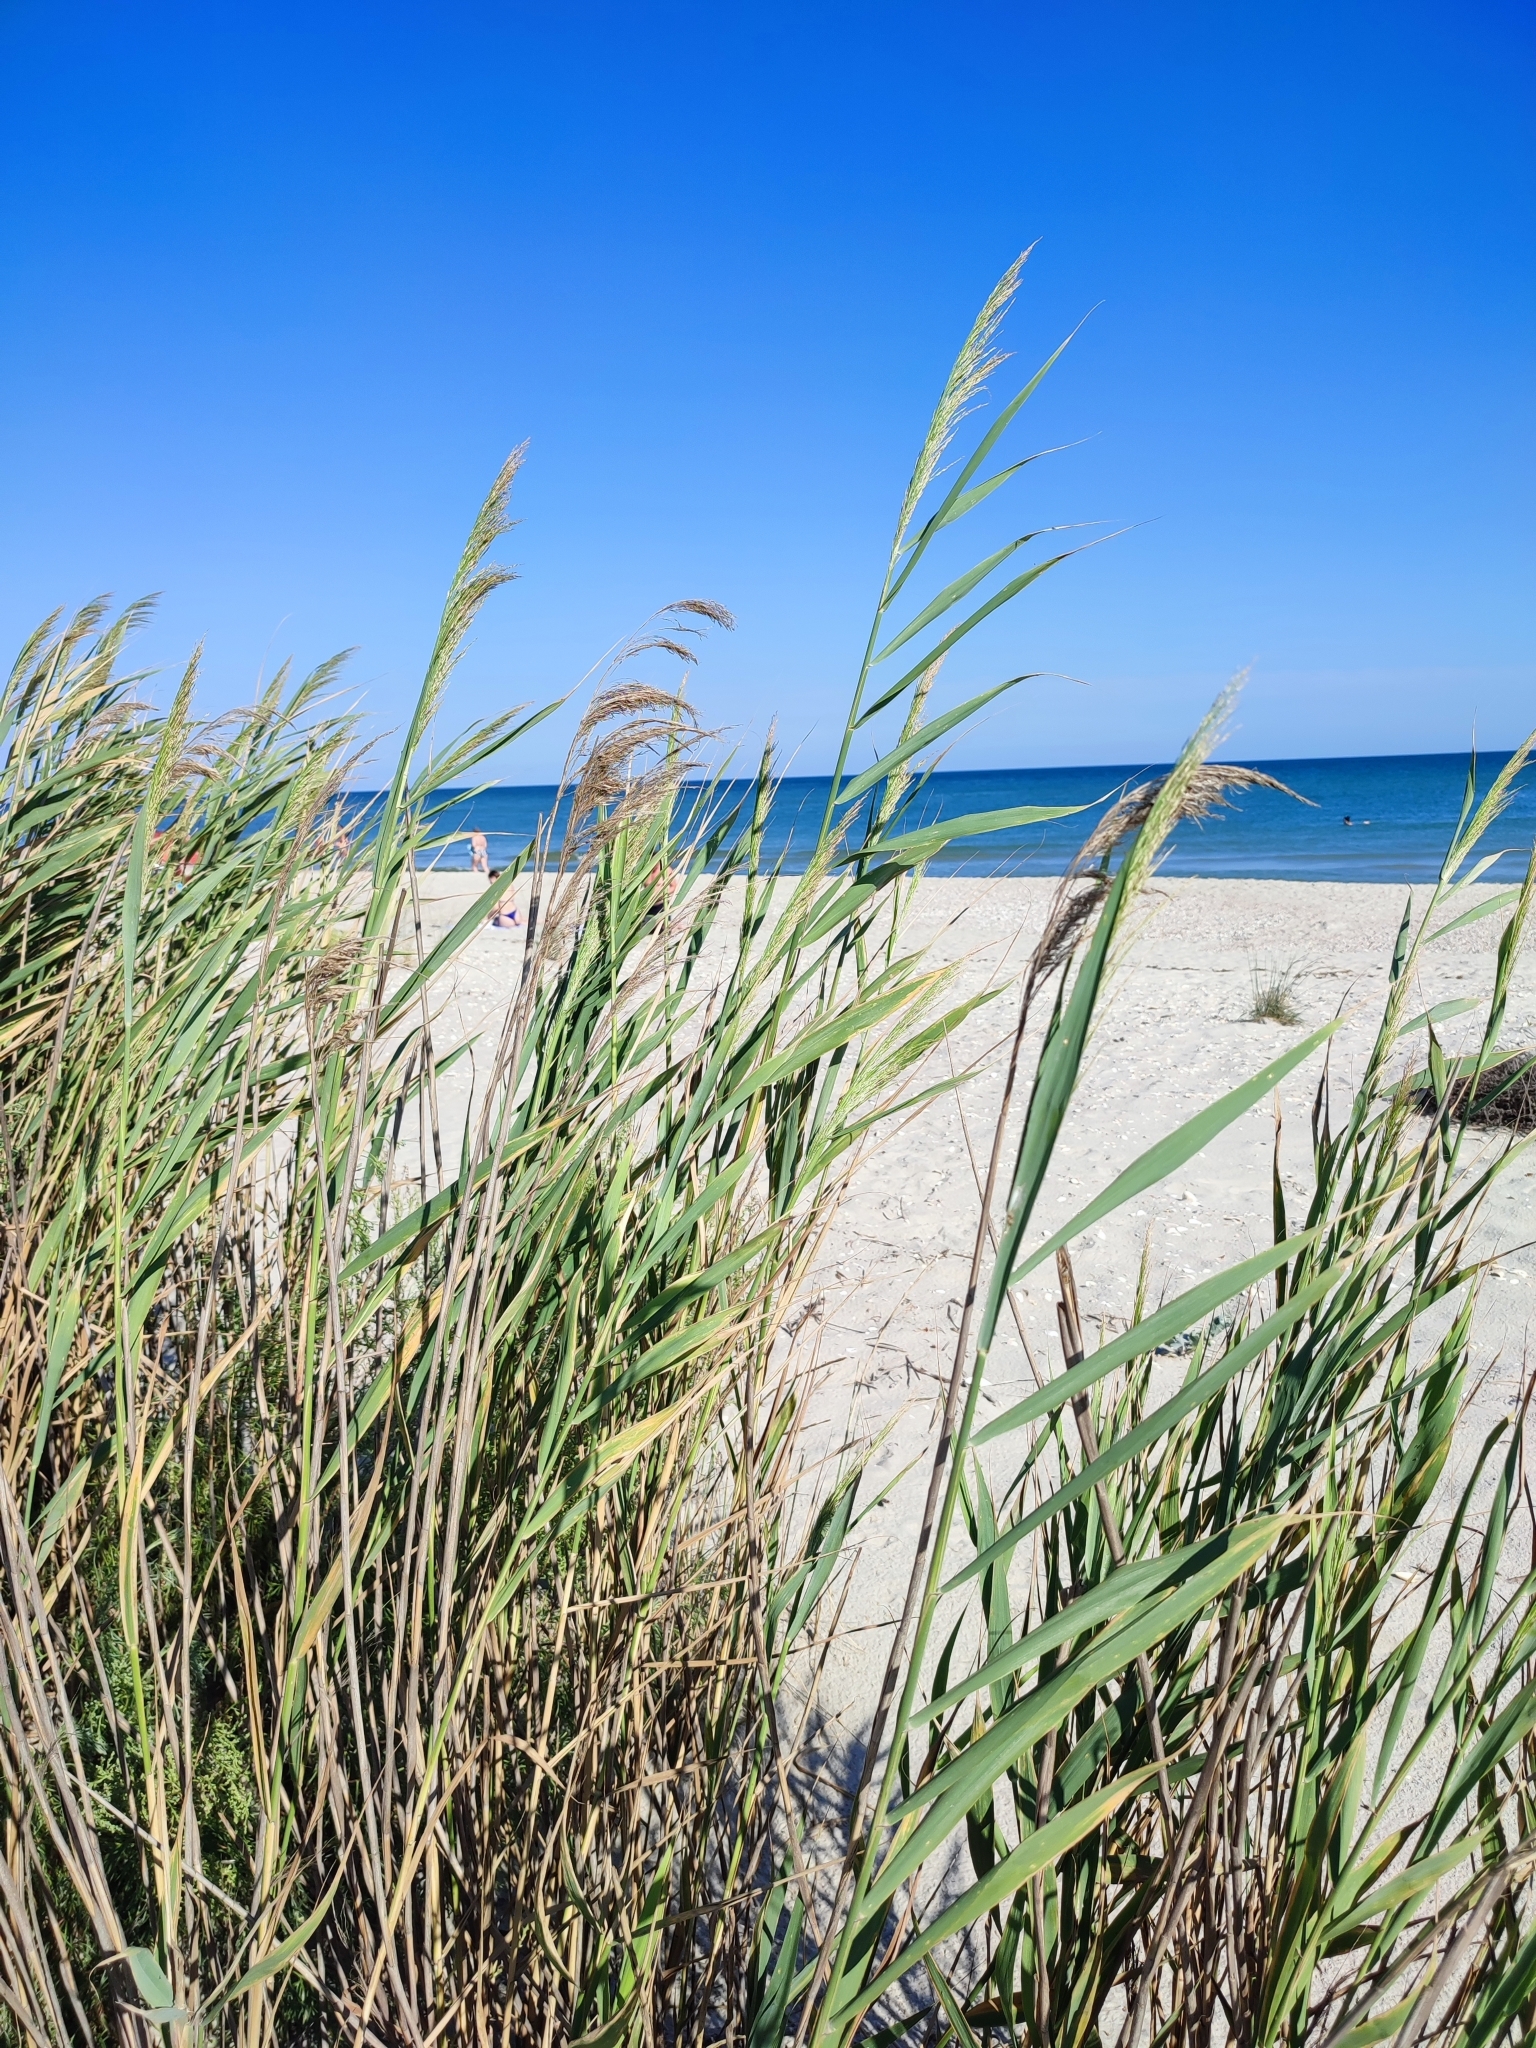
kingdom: Plantae
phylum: Tracheophyta
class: Liliopsida
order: Poales
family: Poaceae
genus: Phragmites
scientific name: Phragmites australis
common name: Common reed
